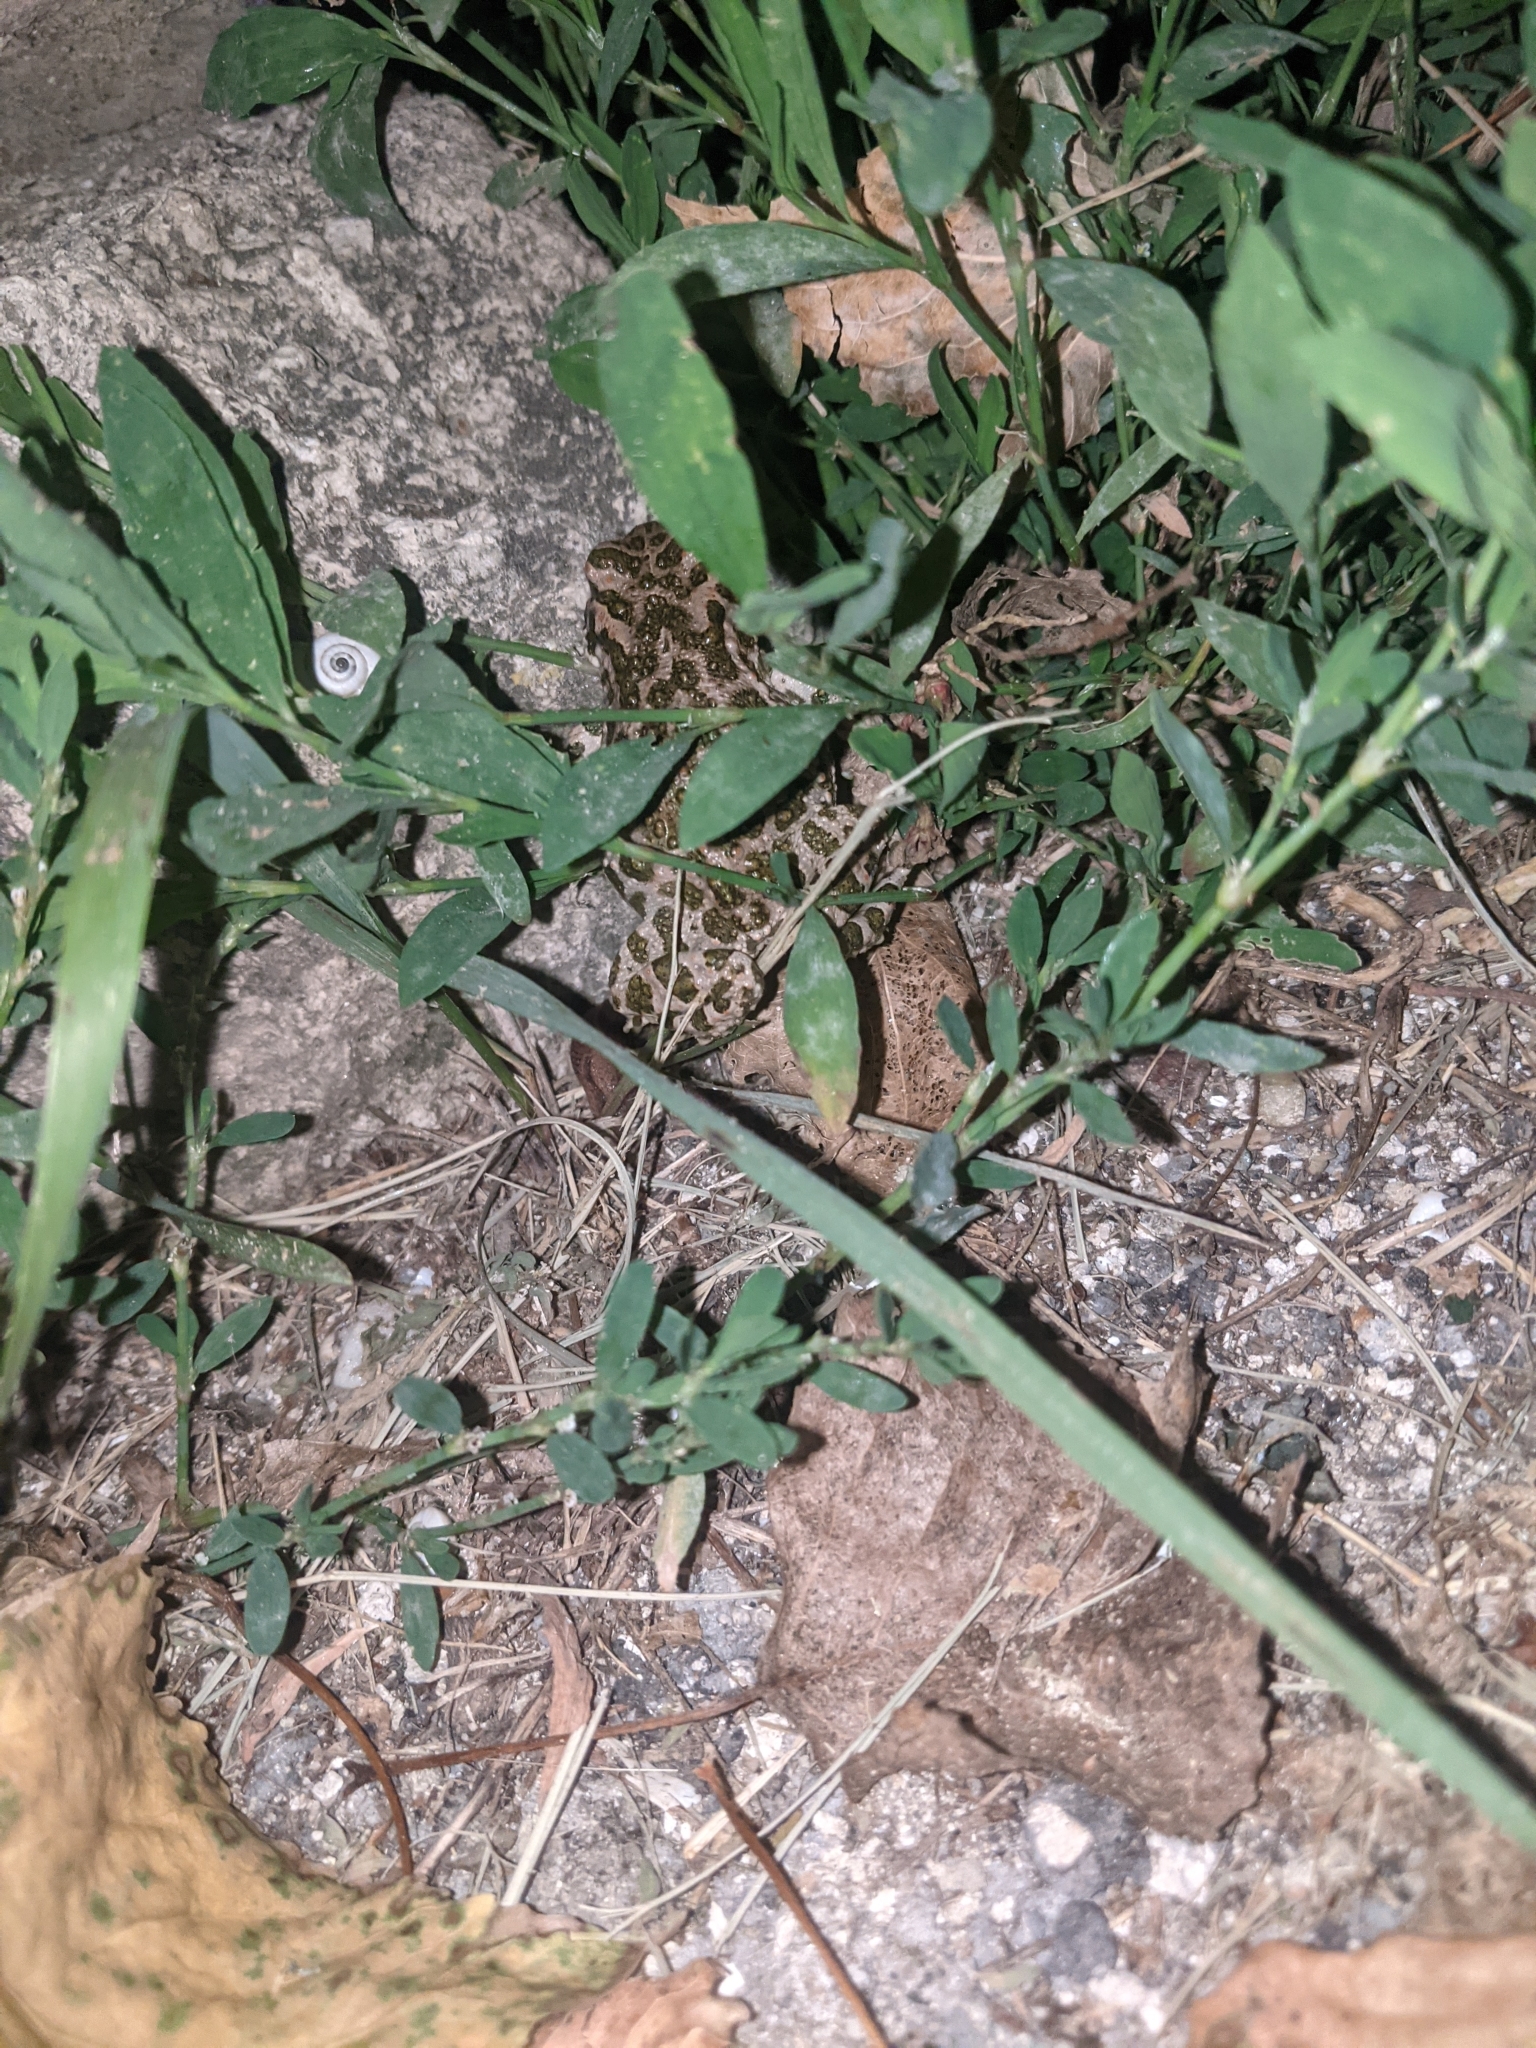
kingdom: Animalia
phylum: Chordata
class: Amphibia
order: Anura
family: Bufonidae
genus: Bufotes
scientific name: Bufotes viridis
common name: European green toad
